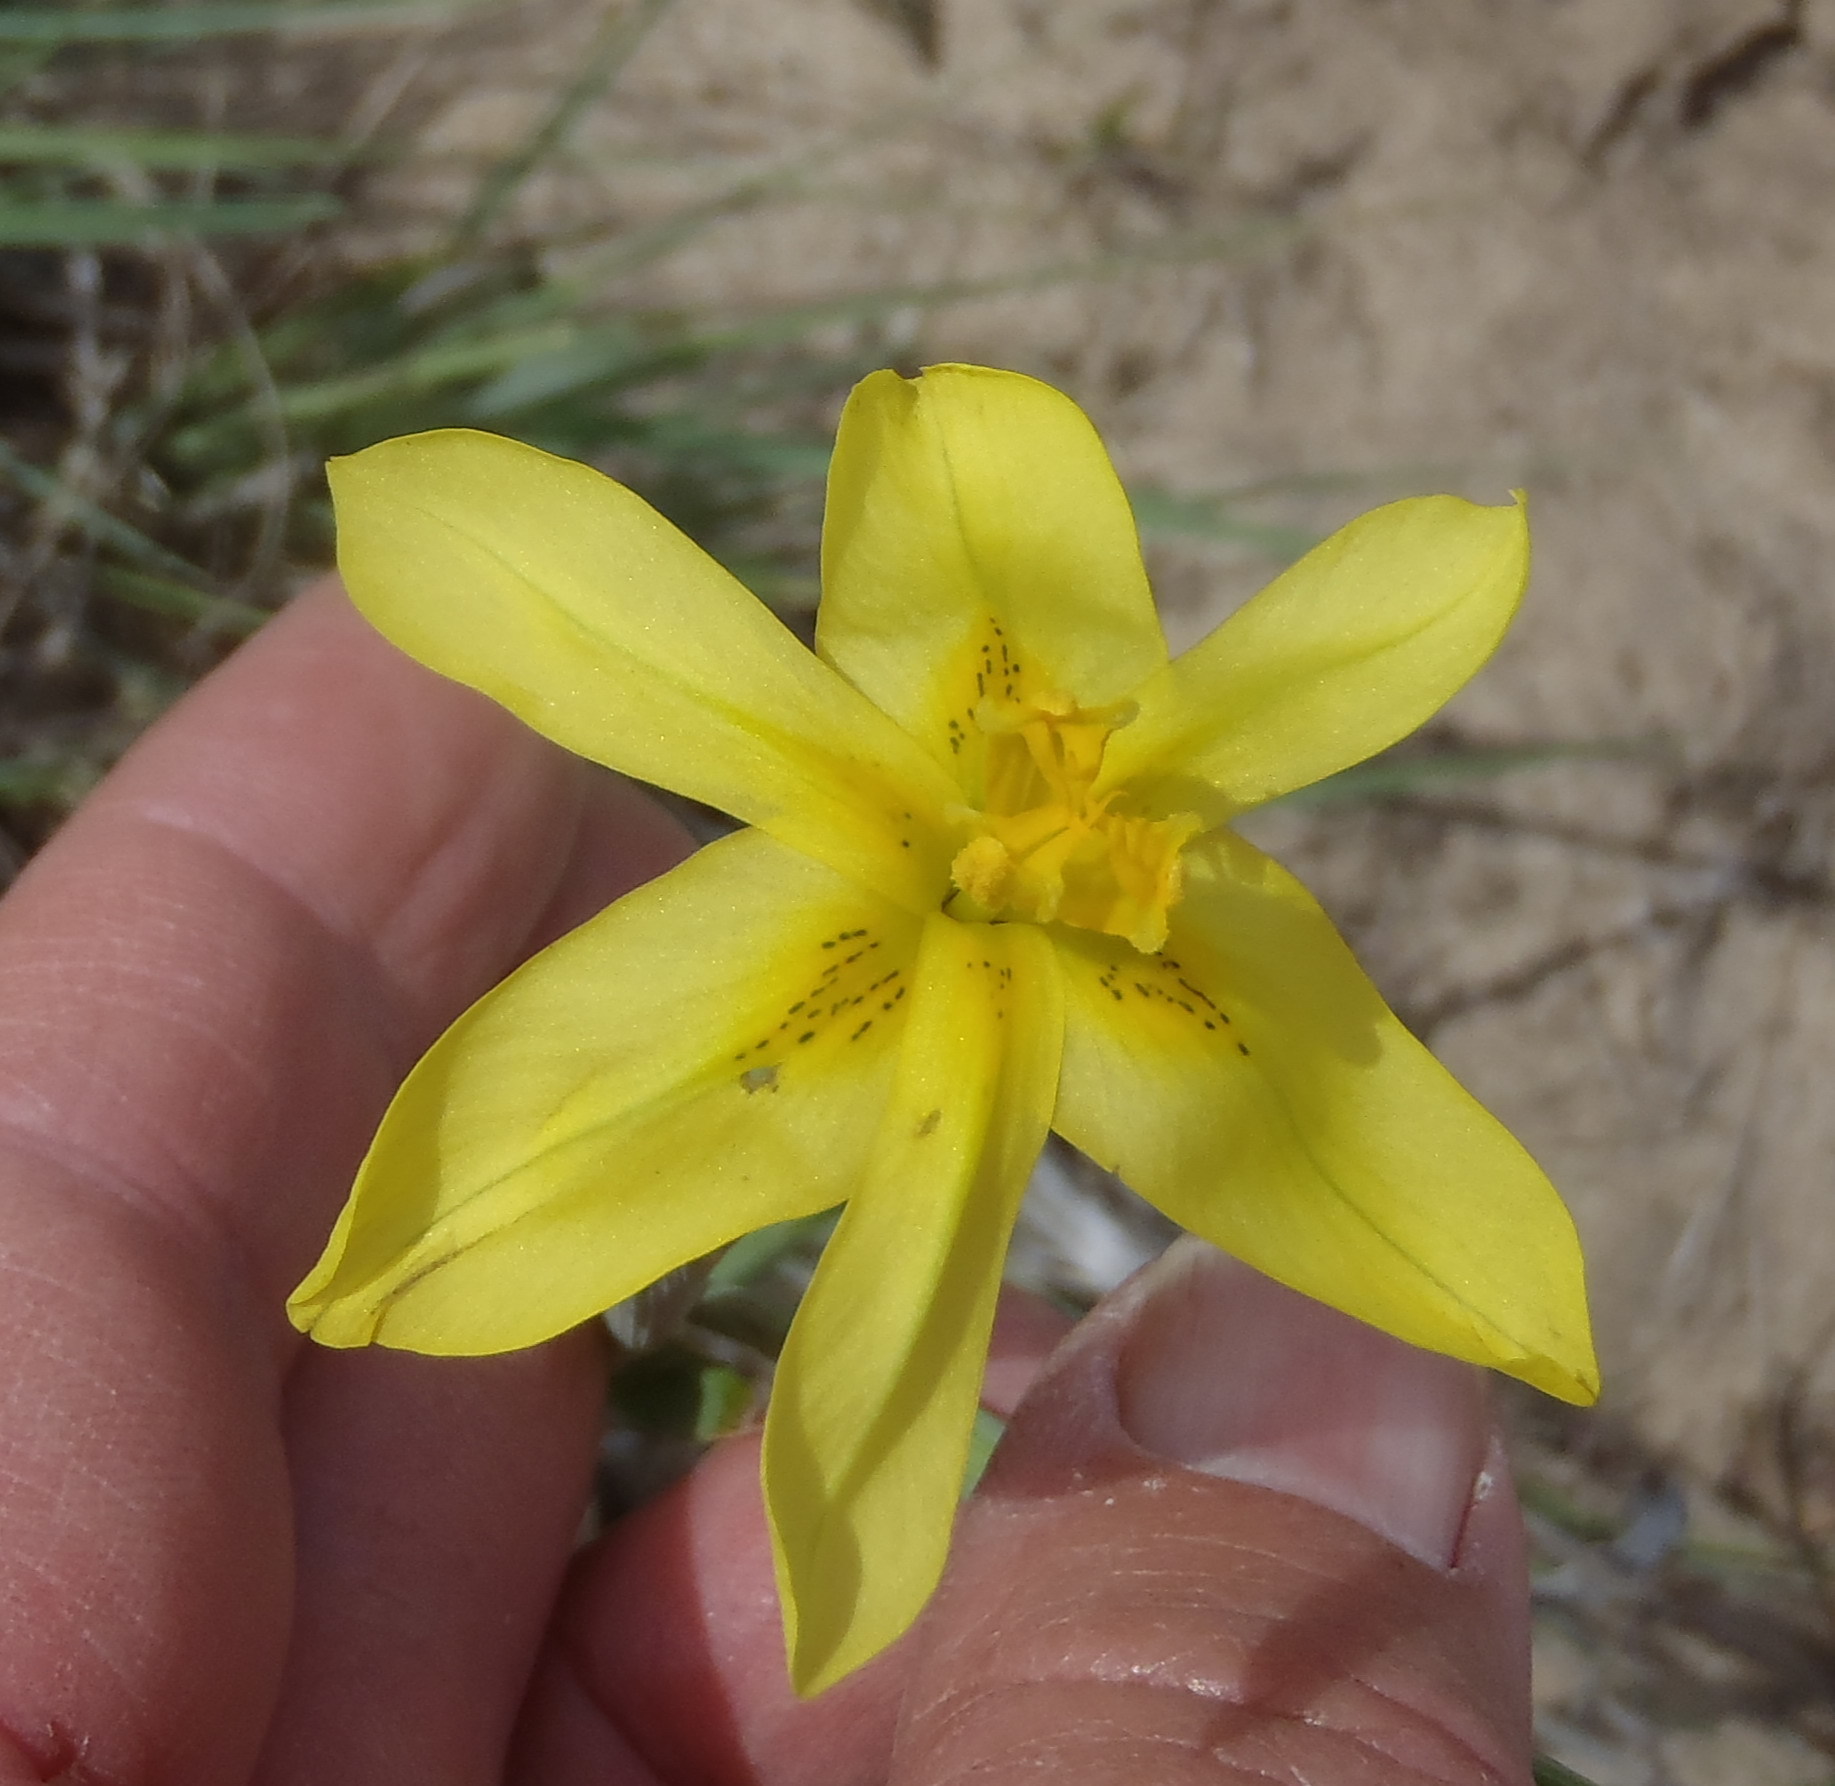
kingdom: Plantae
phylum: Tracheophyta
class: Liliopsida
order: Asparagales
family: Iridaceae
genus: Moraea
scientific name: Moraea cookii
